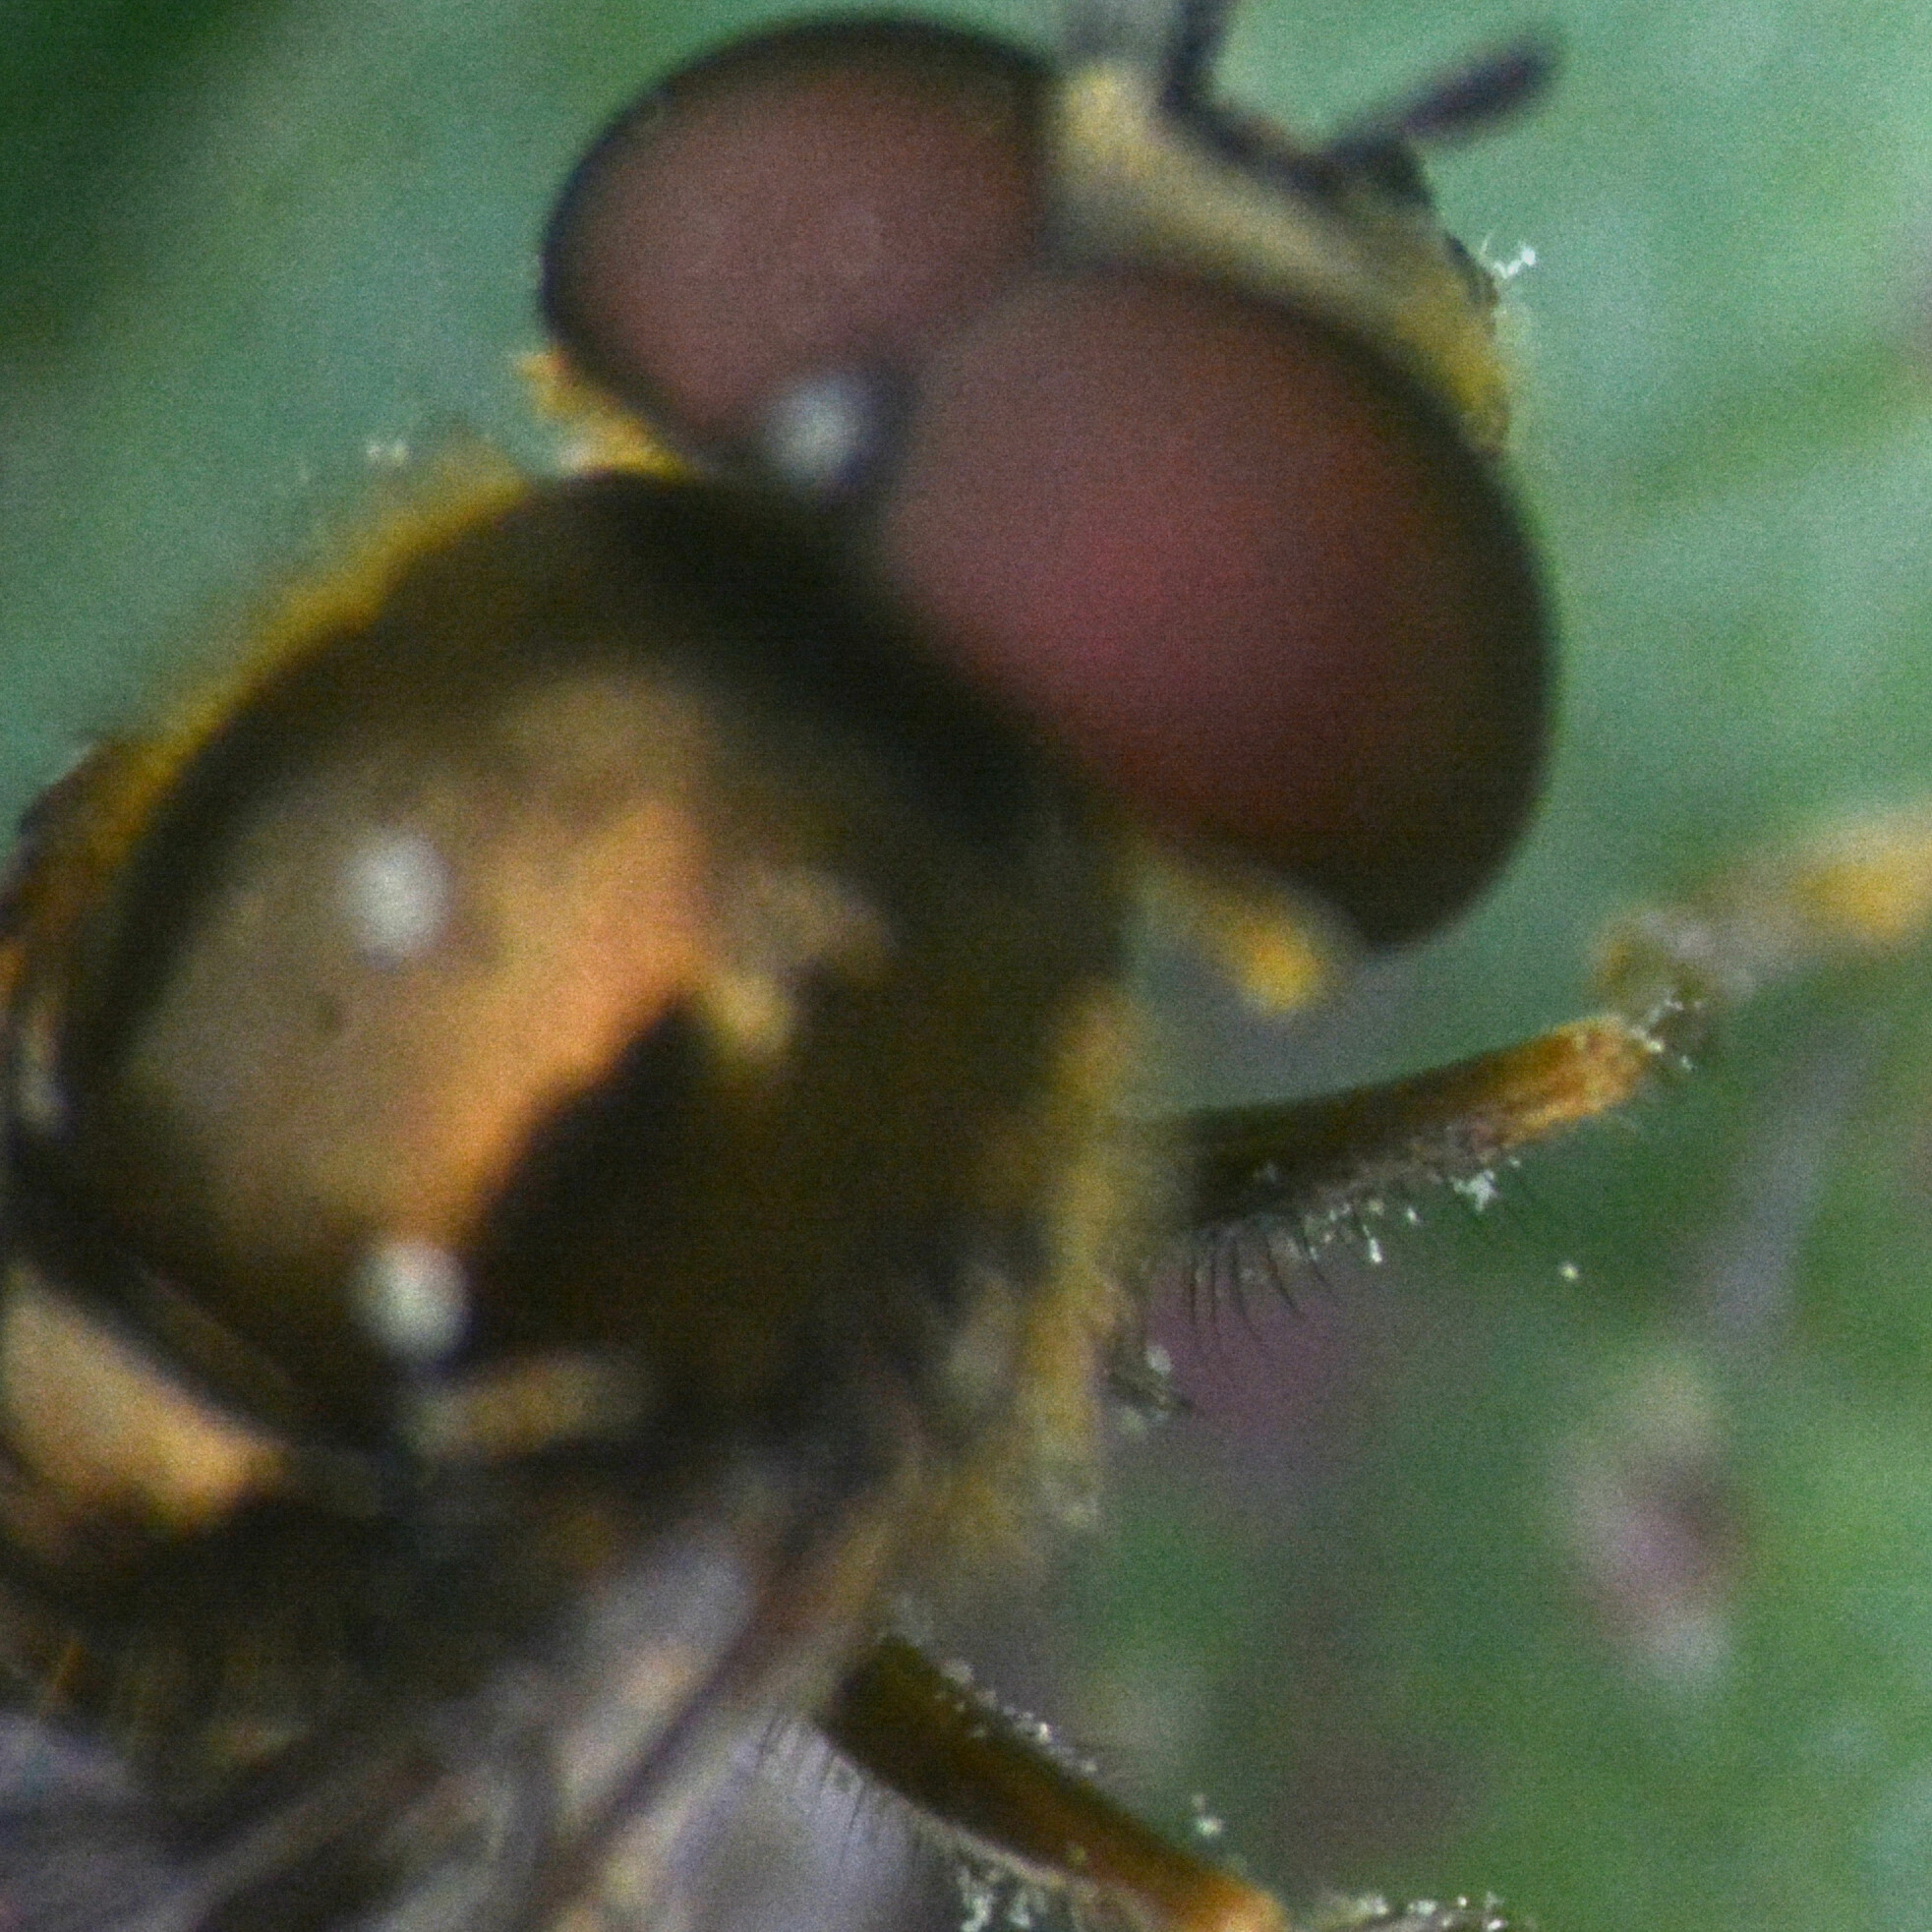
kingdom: Animalia
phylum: Arthropoda
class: Insecta
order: Diptera
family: Syrphidae
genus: Platycheirus
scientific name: Platycheirus scutatus
